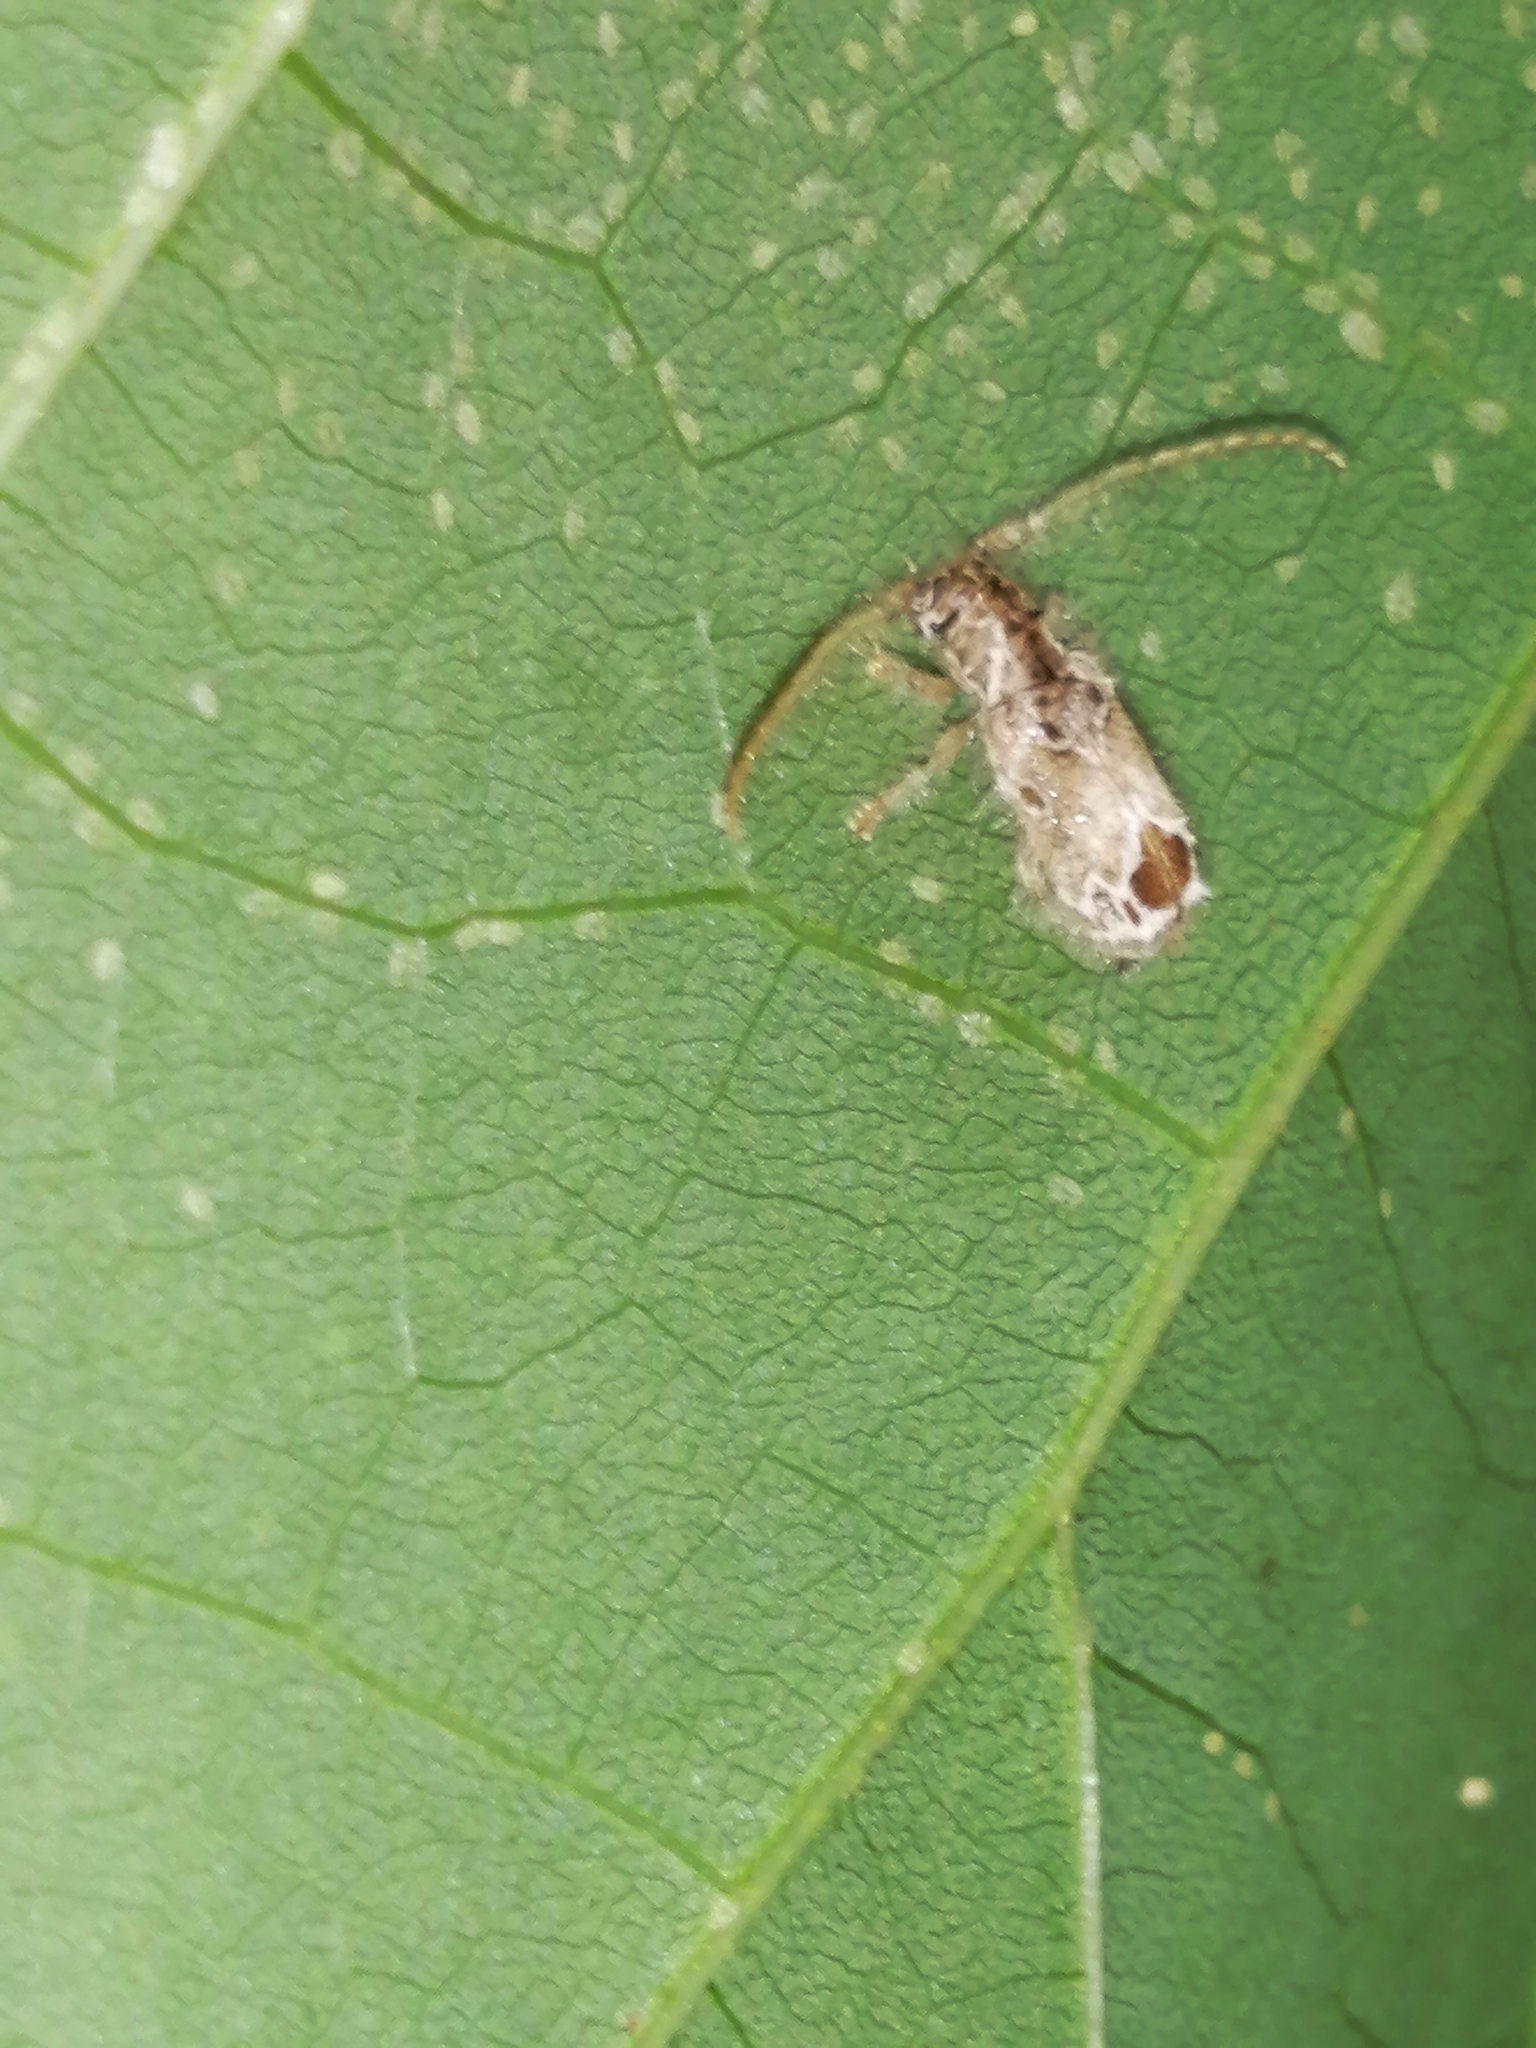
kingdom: Animalia
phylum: Arthropoda
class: Insecta
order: Coleoptera
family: Cerambycidae
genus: Desmiphora
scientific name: Desmiphora aegrota
